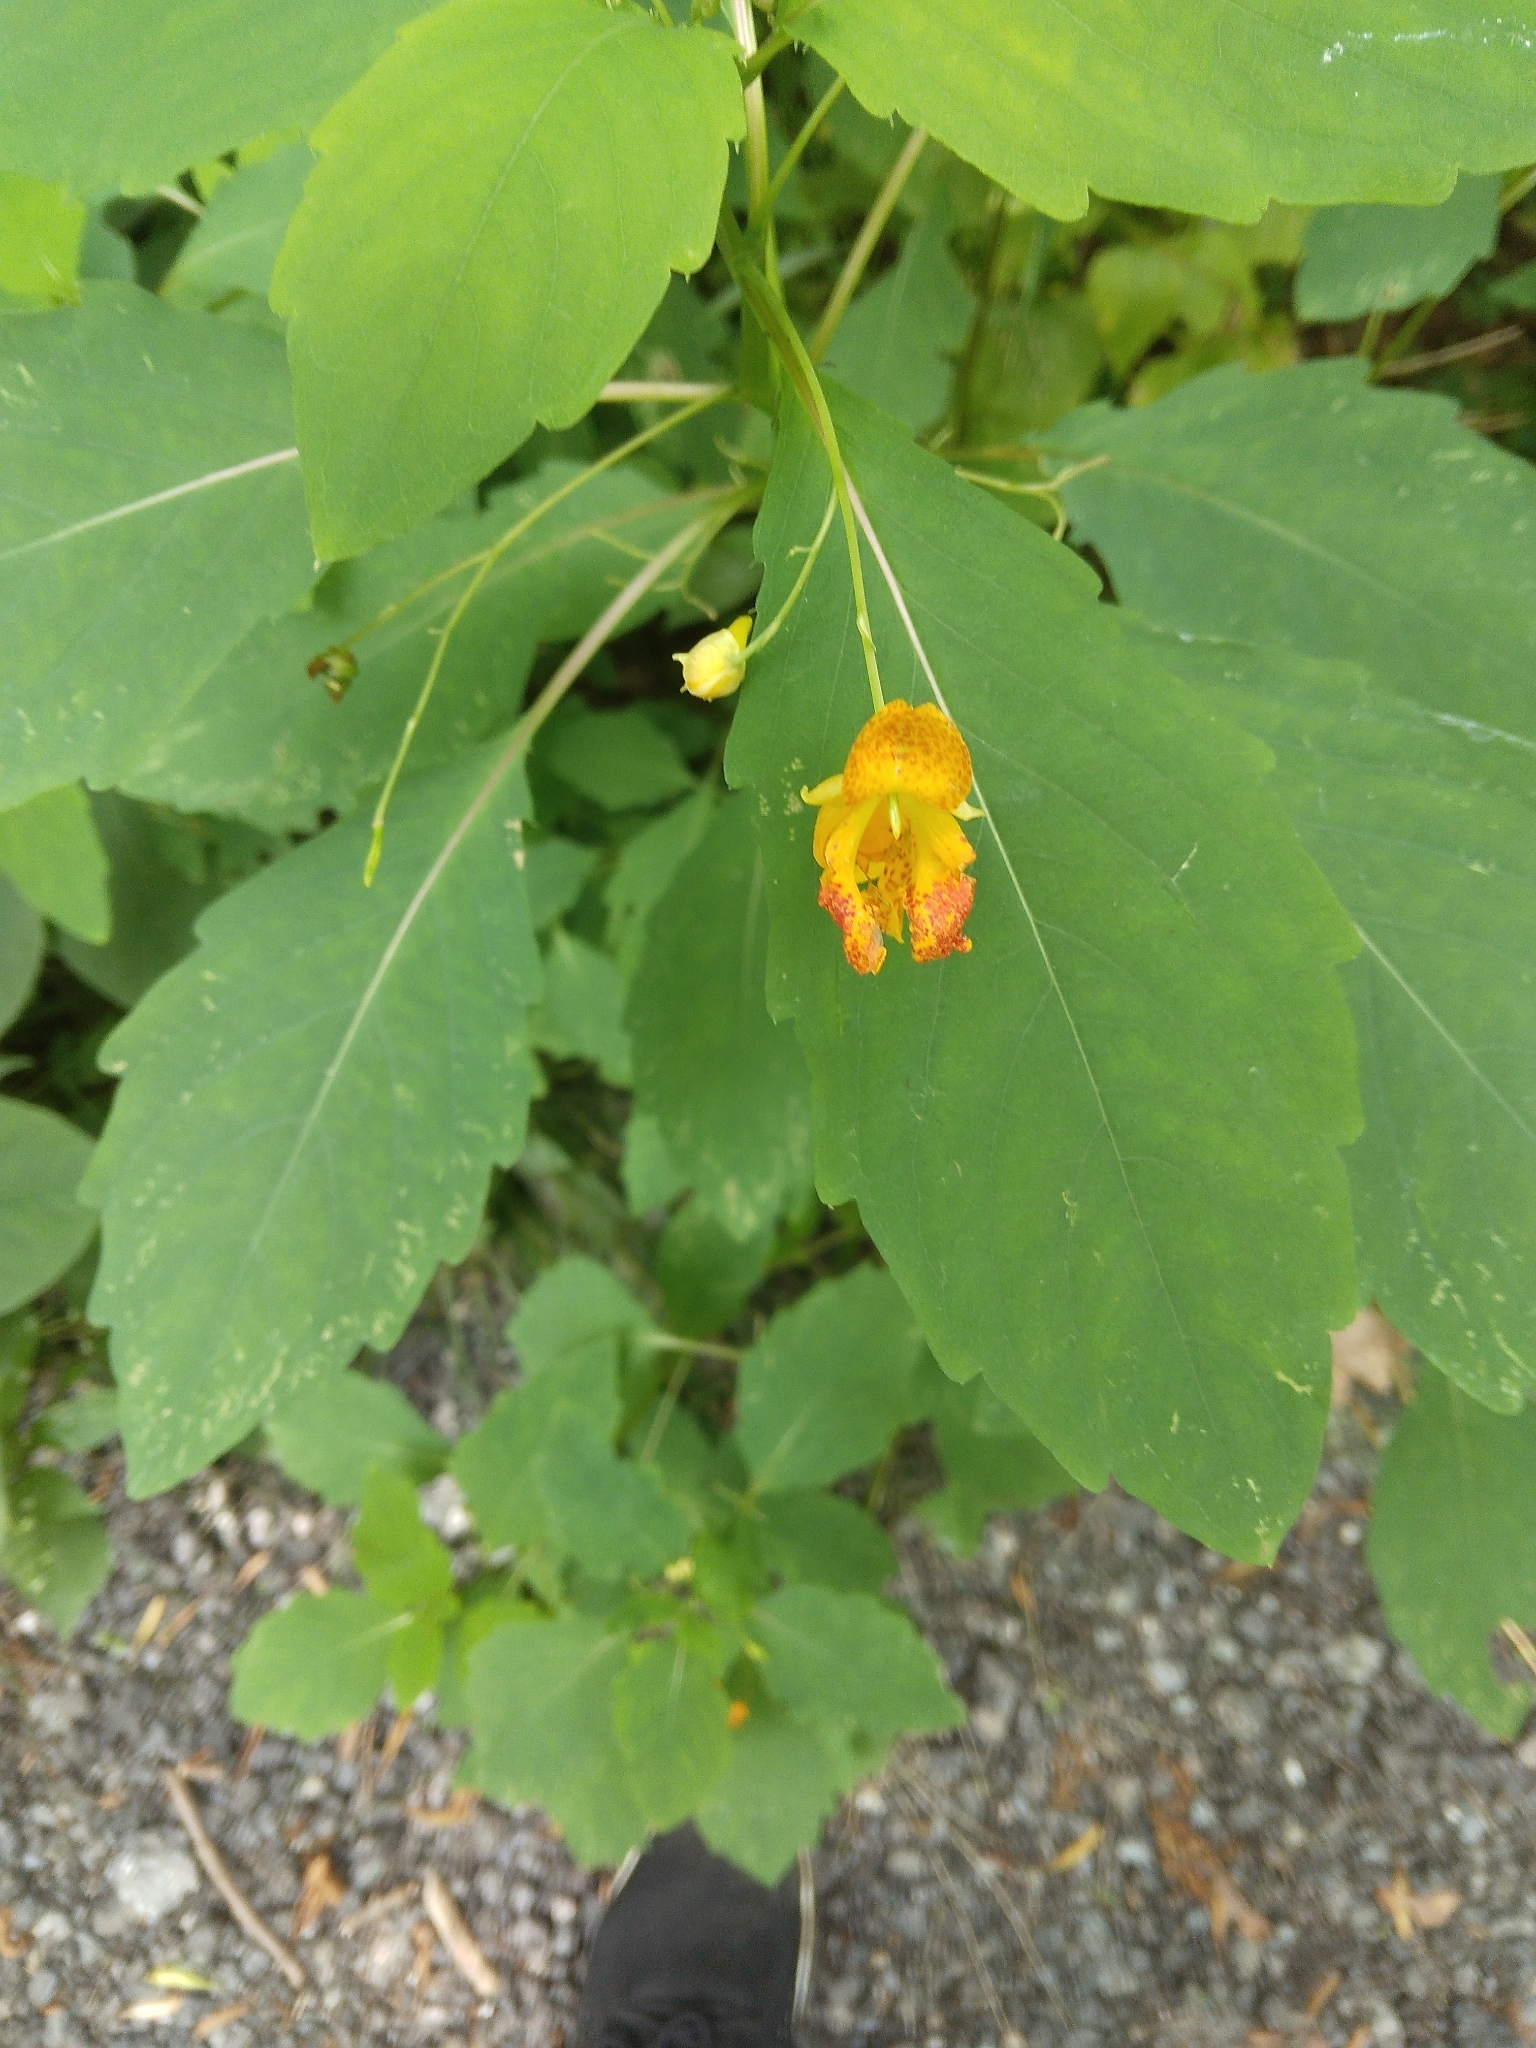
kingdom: Plantae
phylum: Tracheophyta
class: Magnoliopsida
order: Ericales
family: Balsaminaceae
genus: Impatiens
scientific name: Impatiens capensis
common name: Orange balsam
